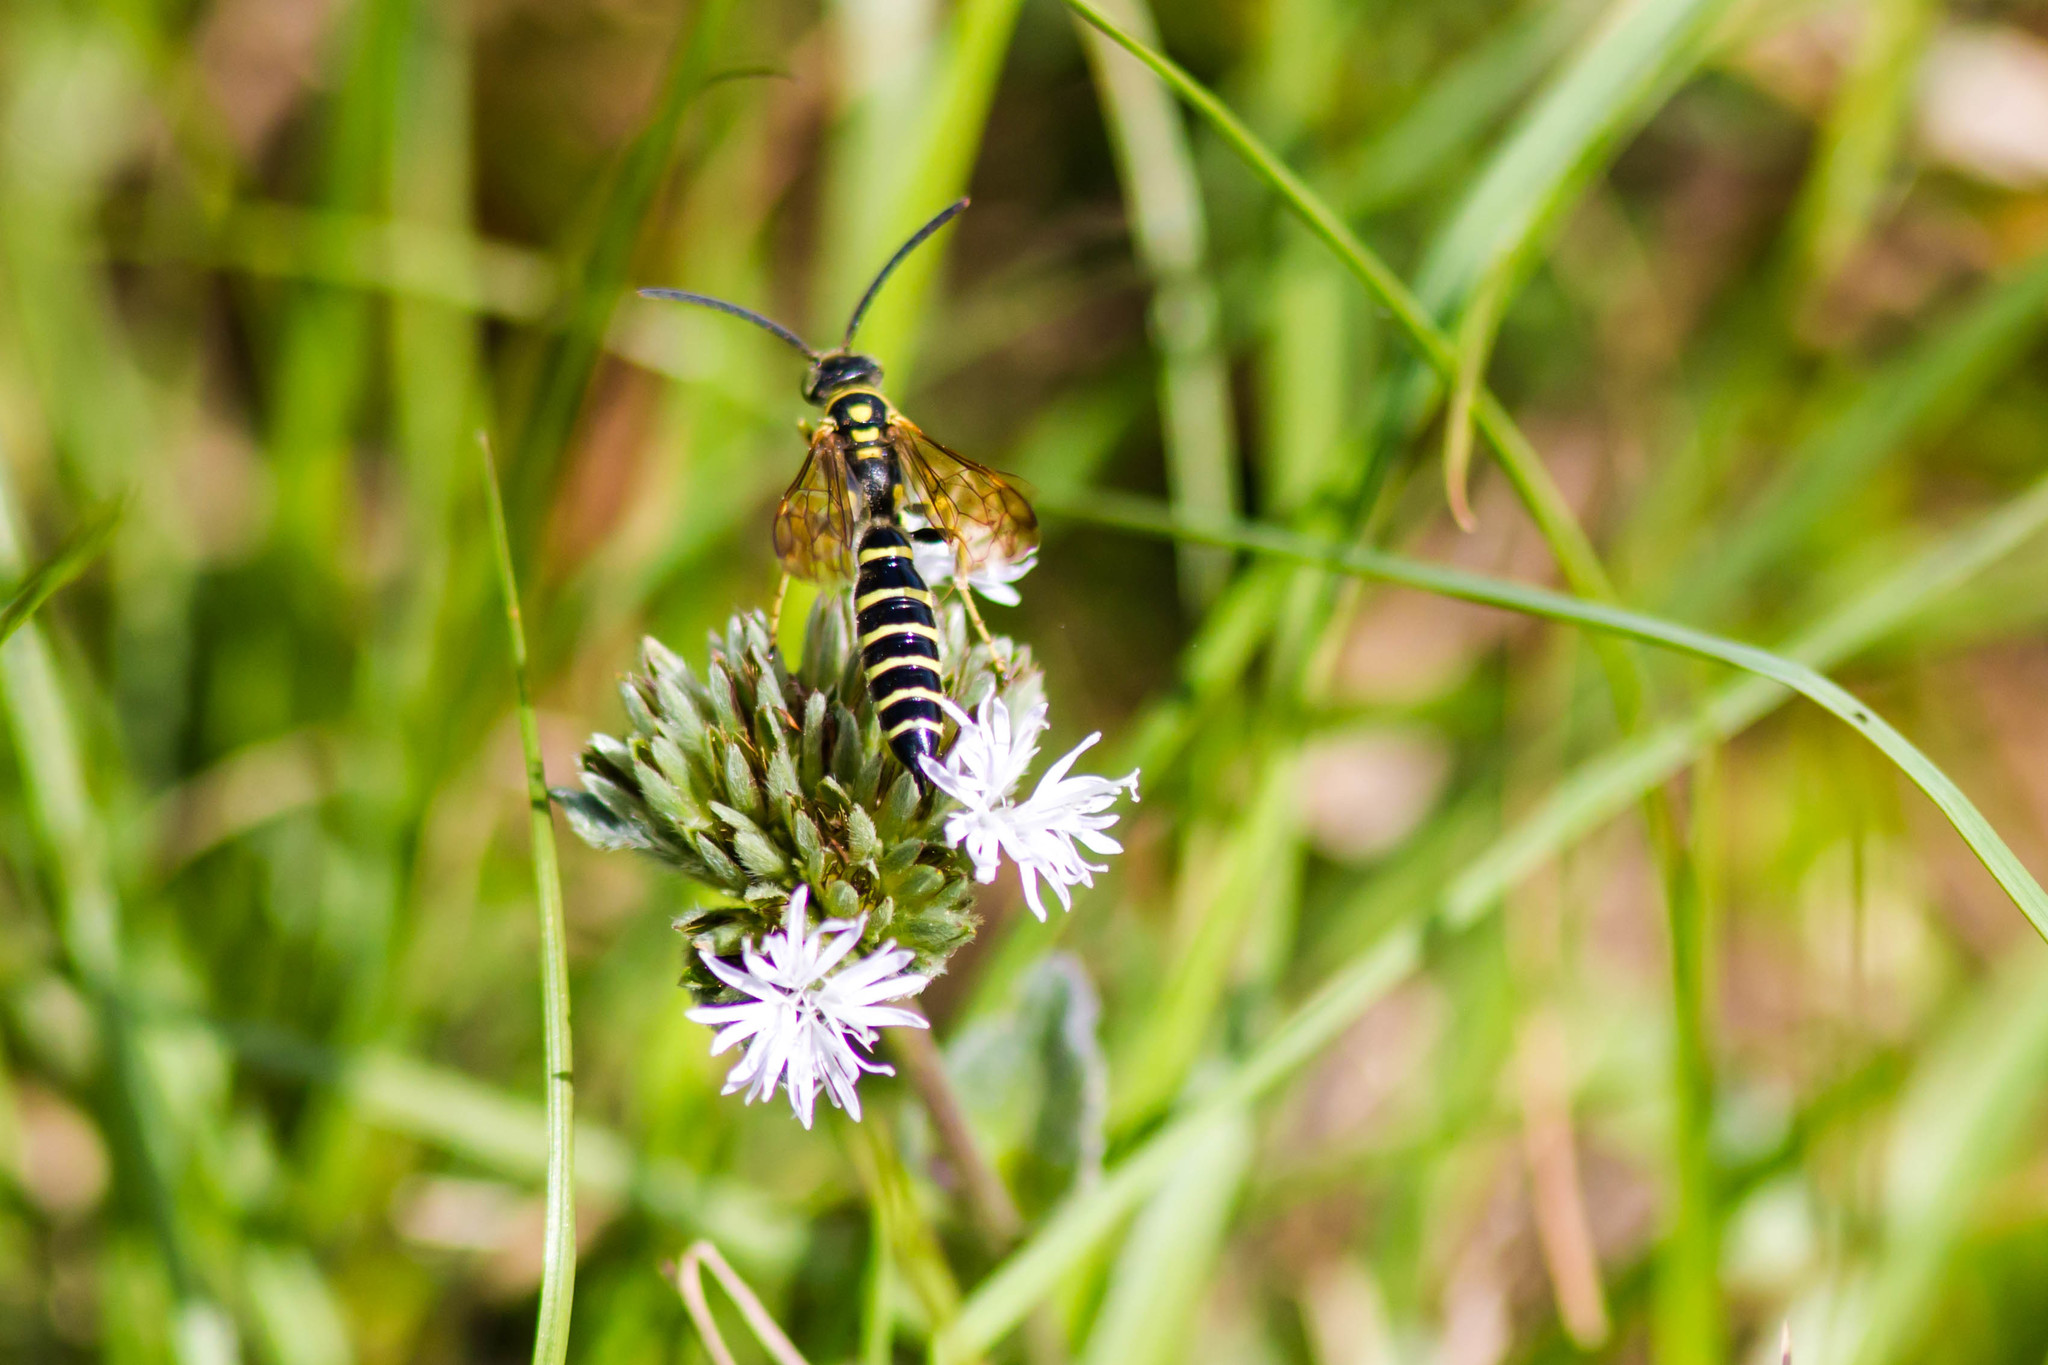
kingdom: Animalia
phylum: Arthropoda
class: Insecta
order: Hymenoptera
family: Tiphiidae
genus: Myzinum
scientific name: Myzinum
